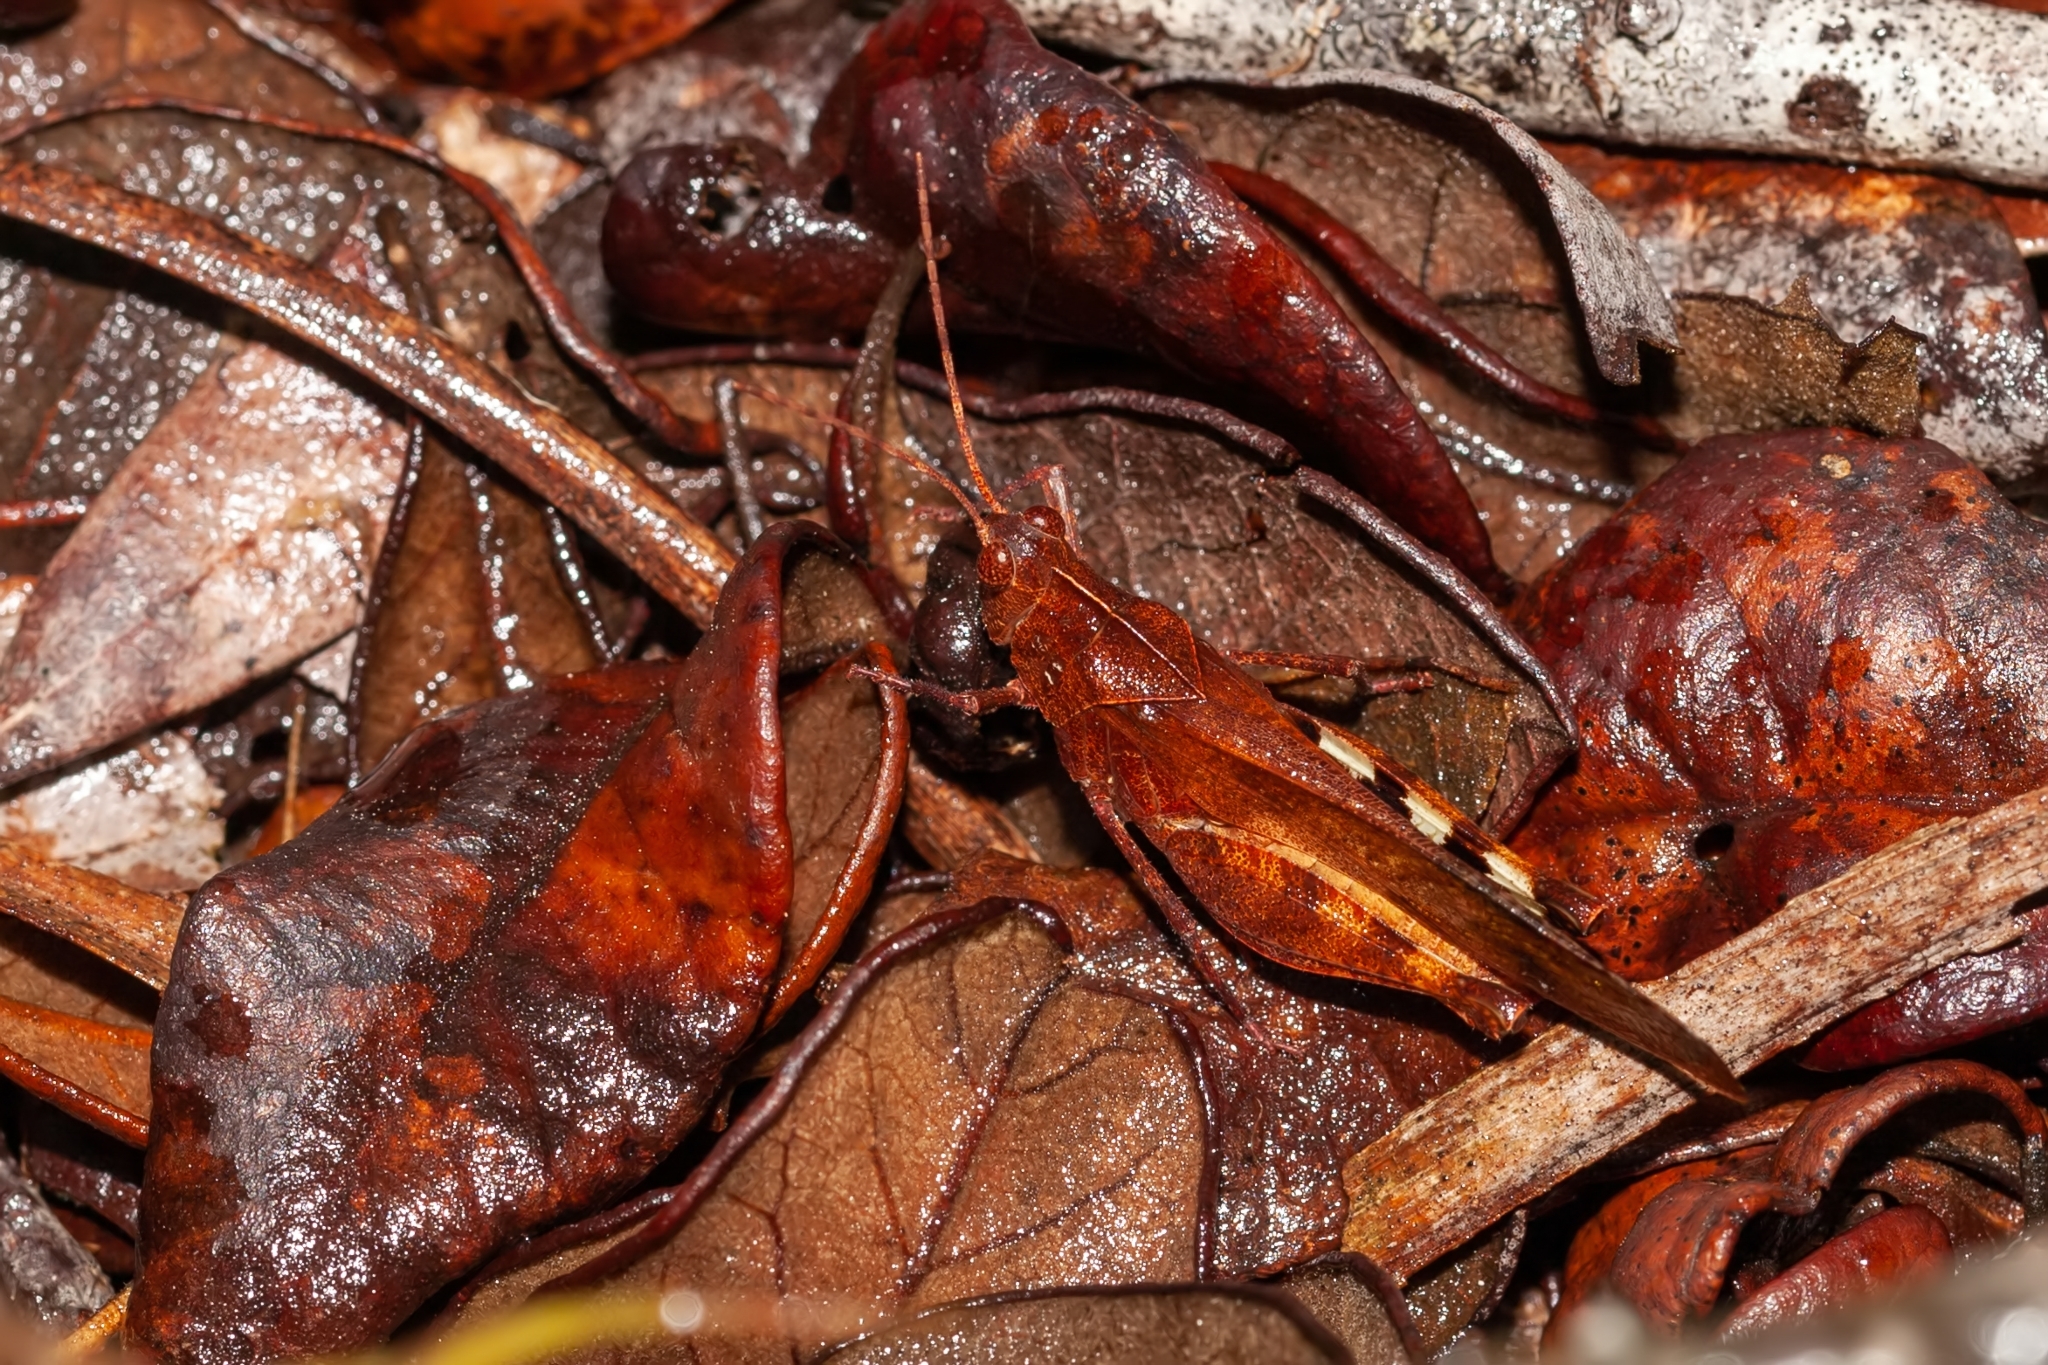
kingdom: Animalia
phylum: Arthropoda
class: Insecta
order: Orthoptera
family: Acrididae
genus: Spharagemon
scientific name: Spharagemon crepitans
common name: Crepitating grasshopper
